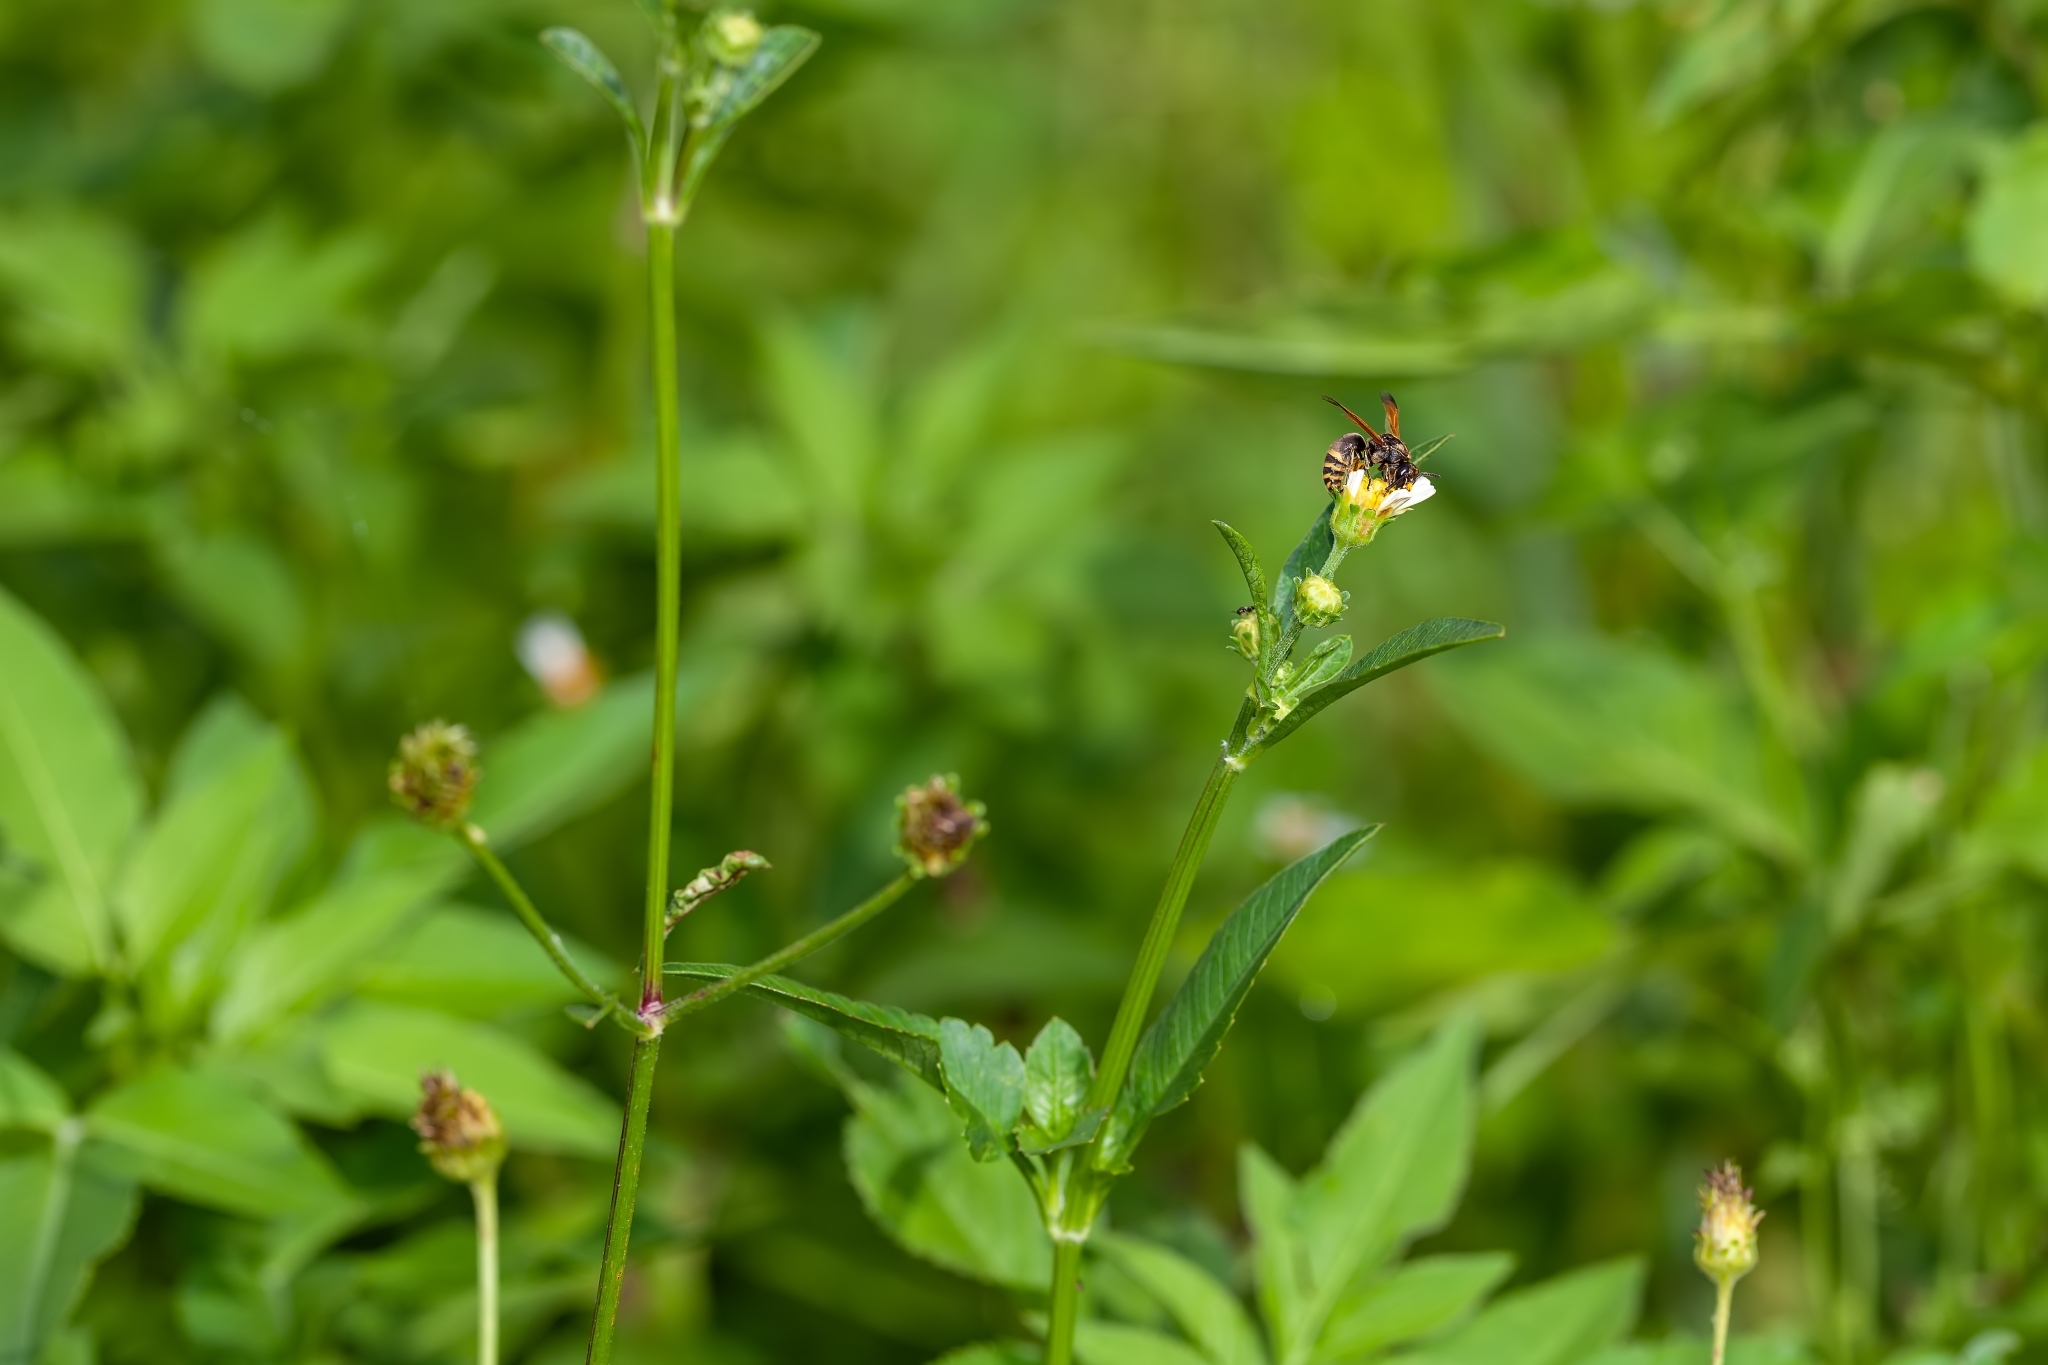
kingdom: Animalia
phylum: Arthropoda
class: Insecta
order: Hymenoptera
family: Eumenidae
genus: Pachodynerus
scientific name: Pachodynerus nasidens
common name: Key hole wasp
